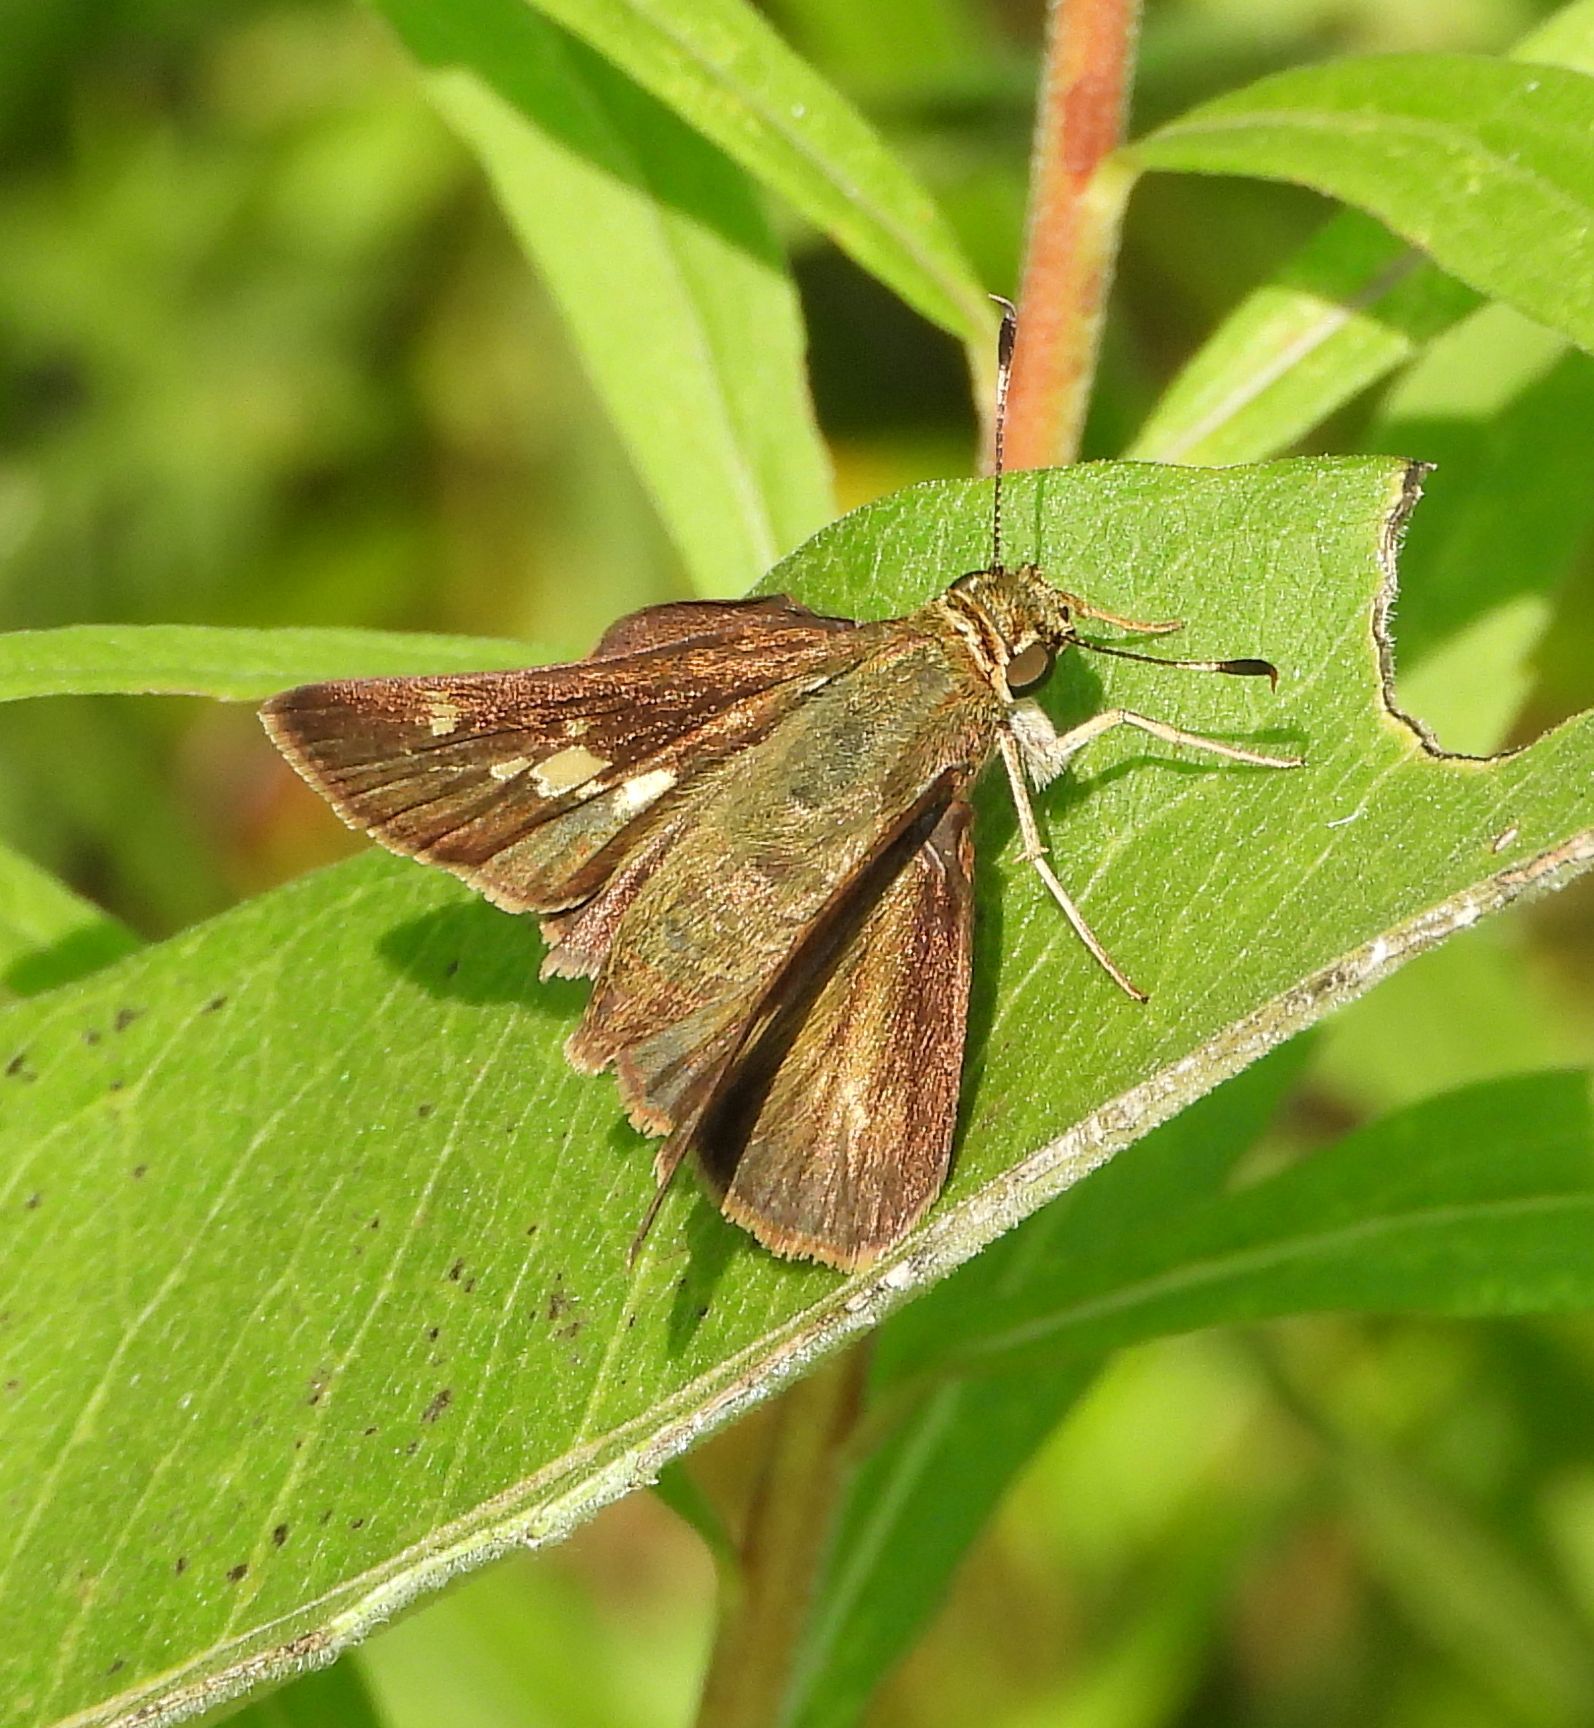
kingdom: Animalia
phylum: Arthropoda
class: Insecta
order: Lepidoptera
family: Hesperiidae
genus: Vernia
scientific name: Vernia verna
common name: Little glassywing
